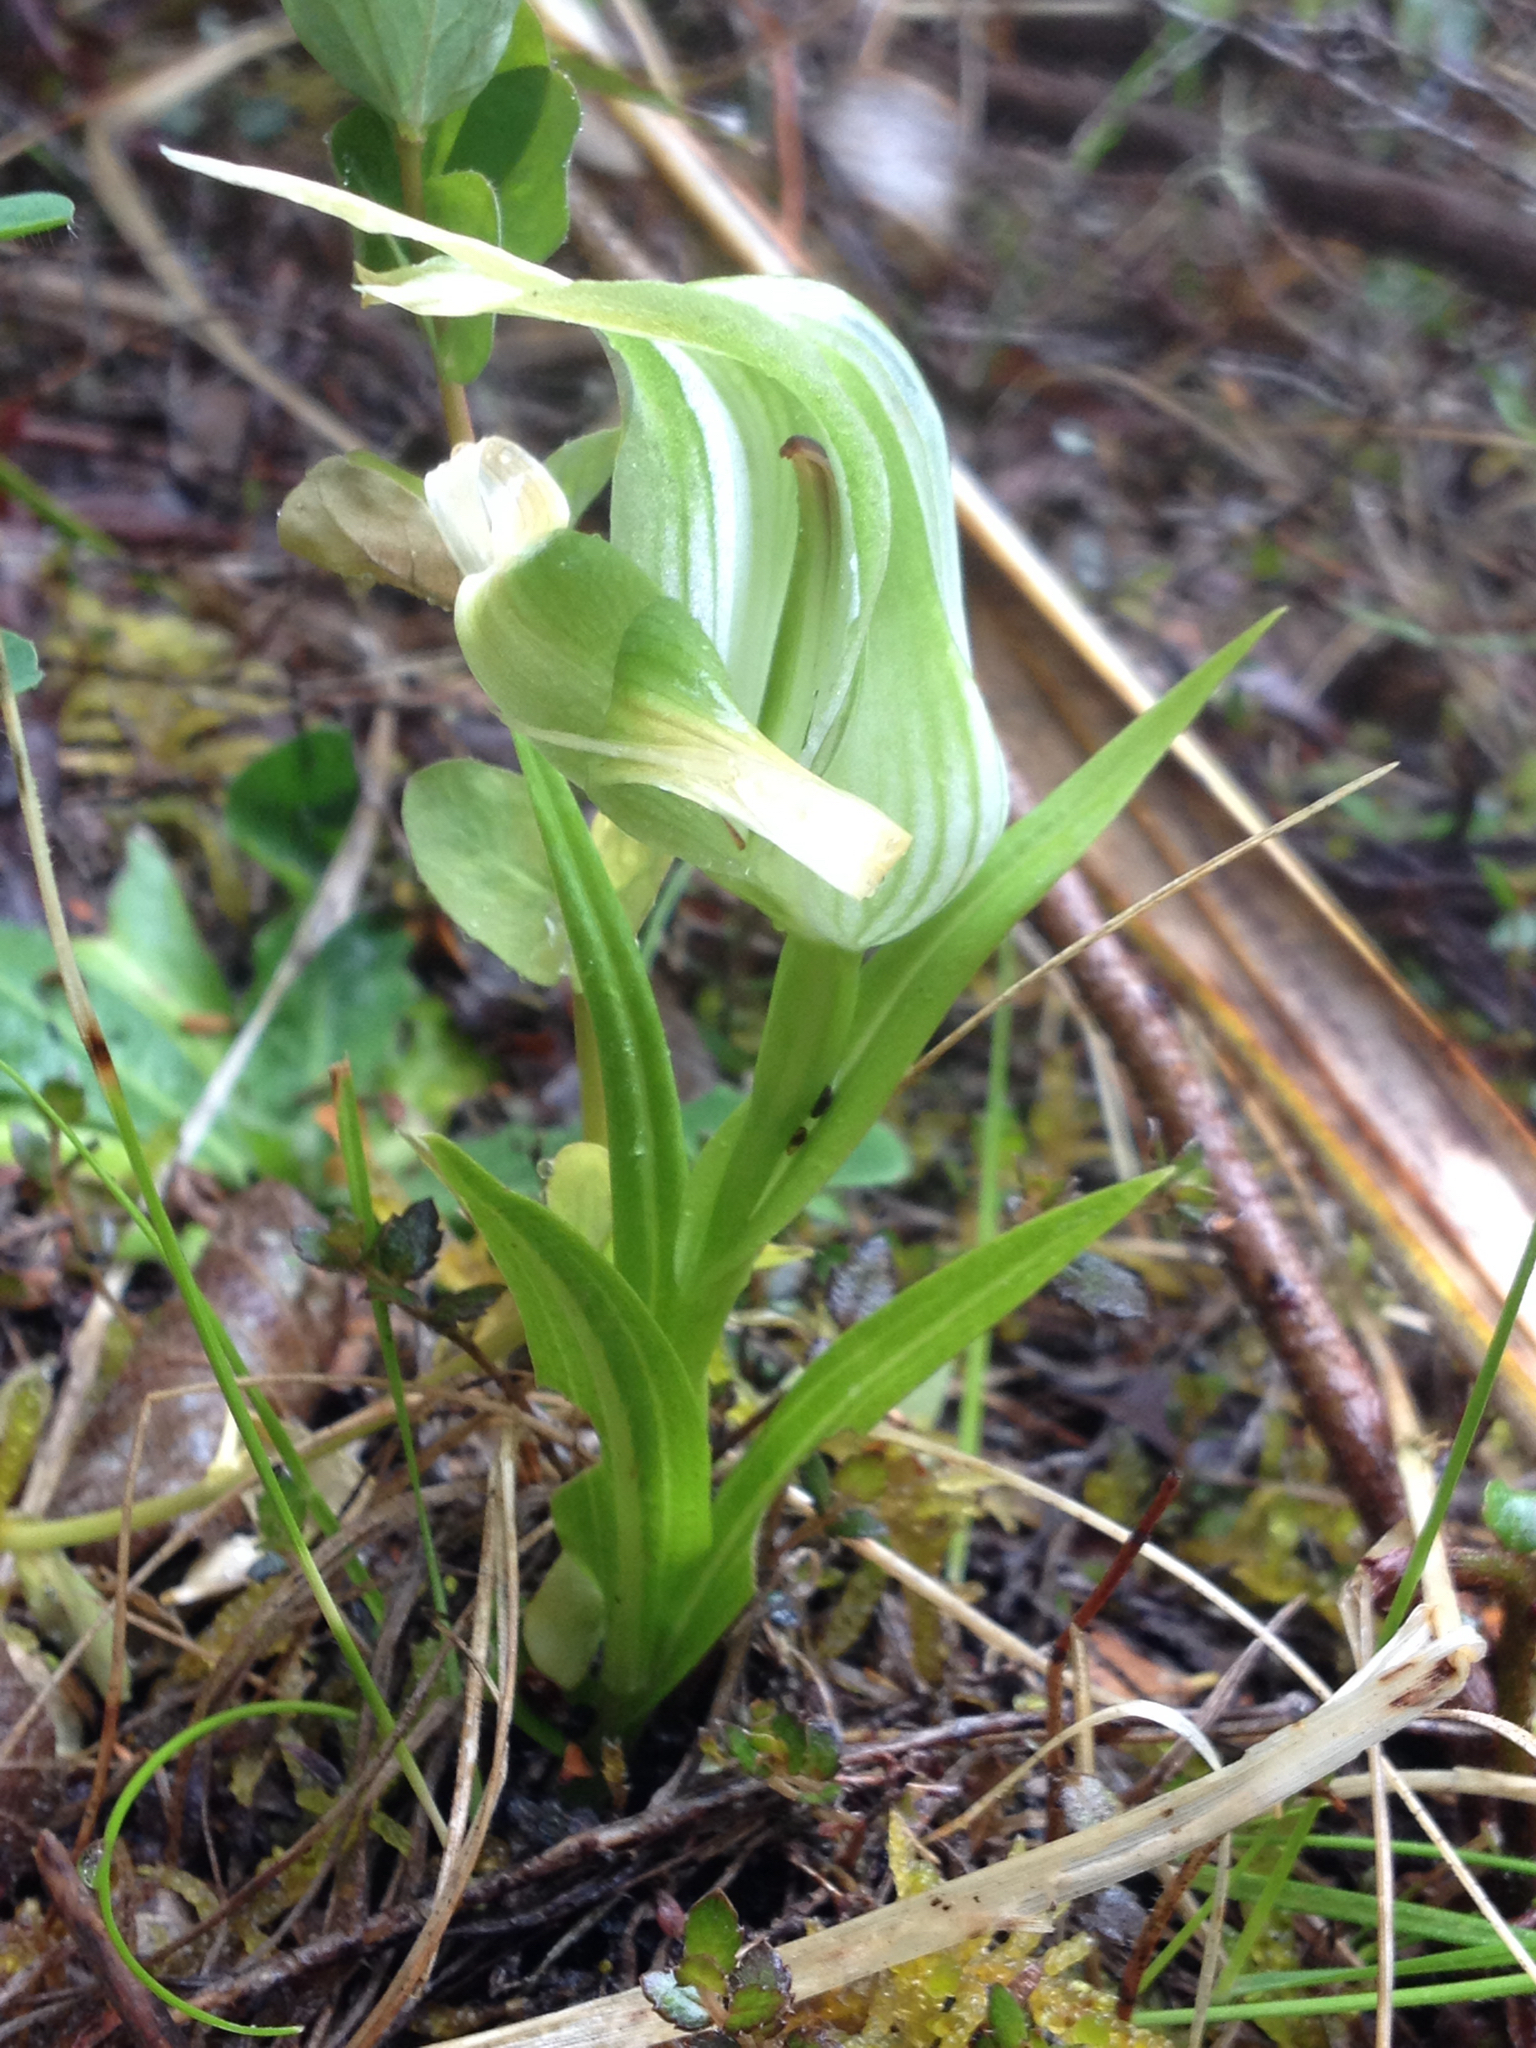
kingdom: Plantae
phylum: Tracheophyta
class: Liliopsida
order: Asparagales
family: Orchidaceae
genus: Pterostylis
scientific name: Pterostylis patens
